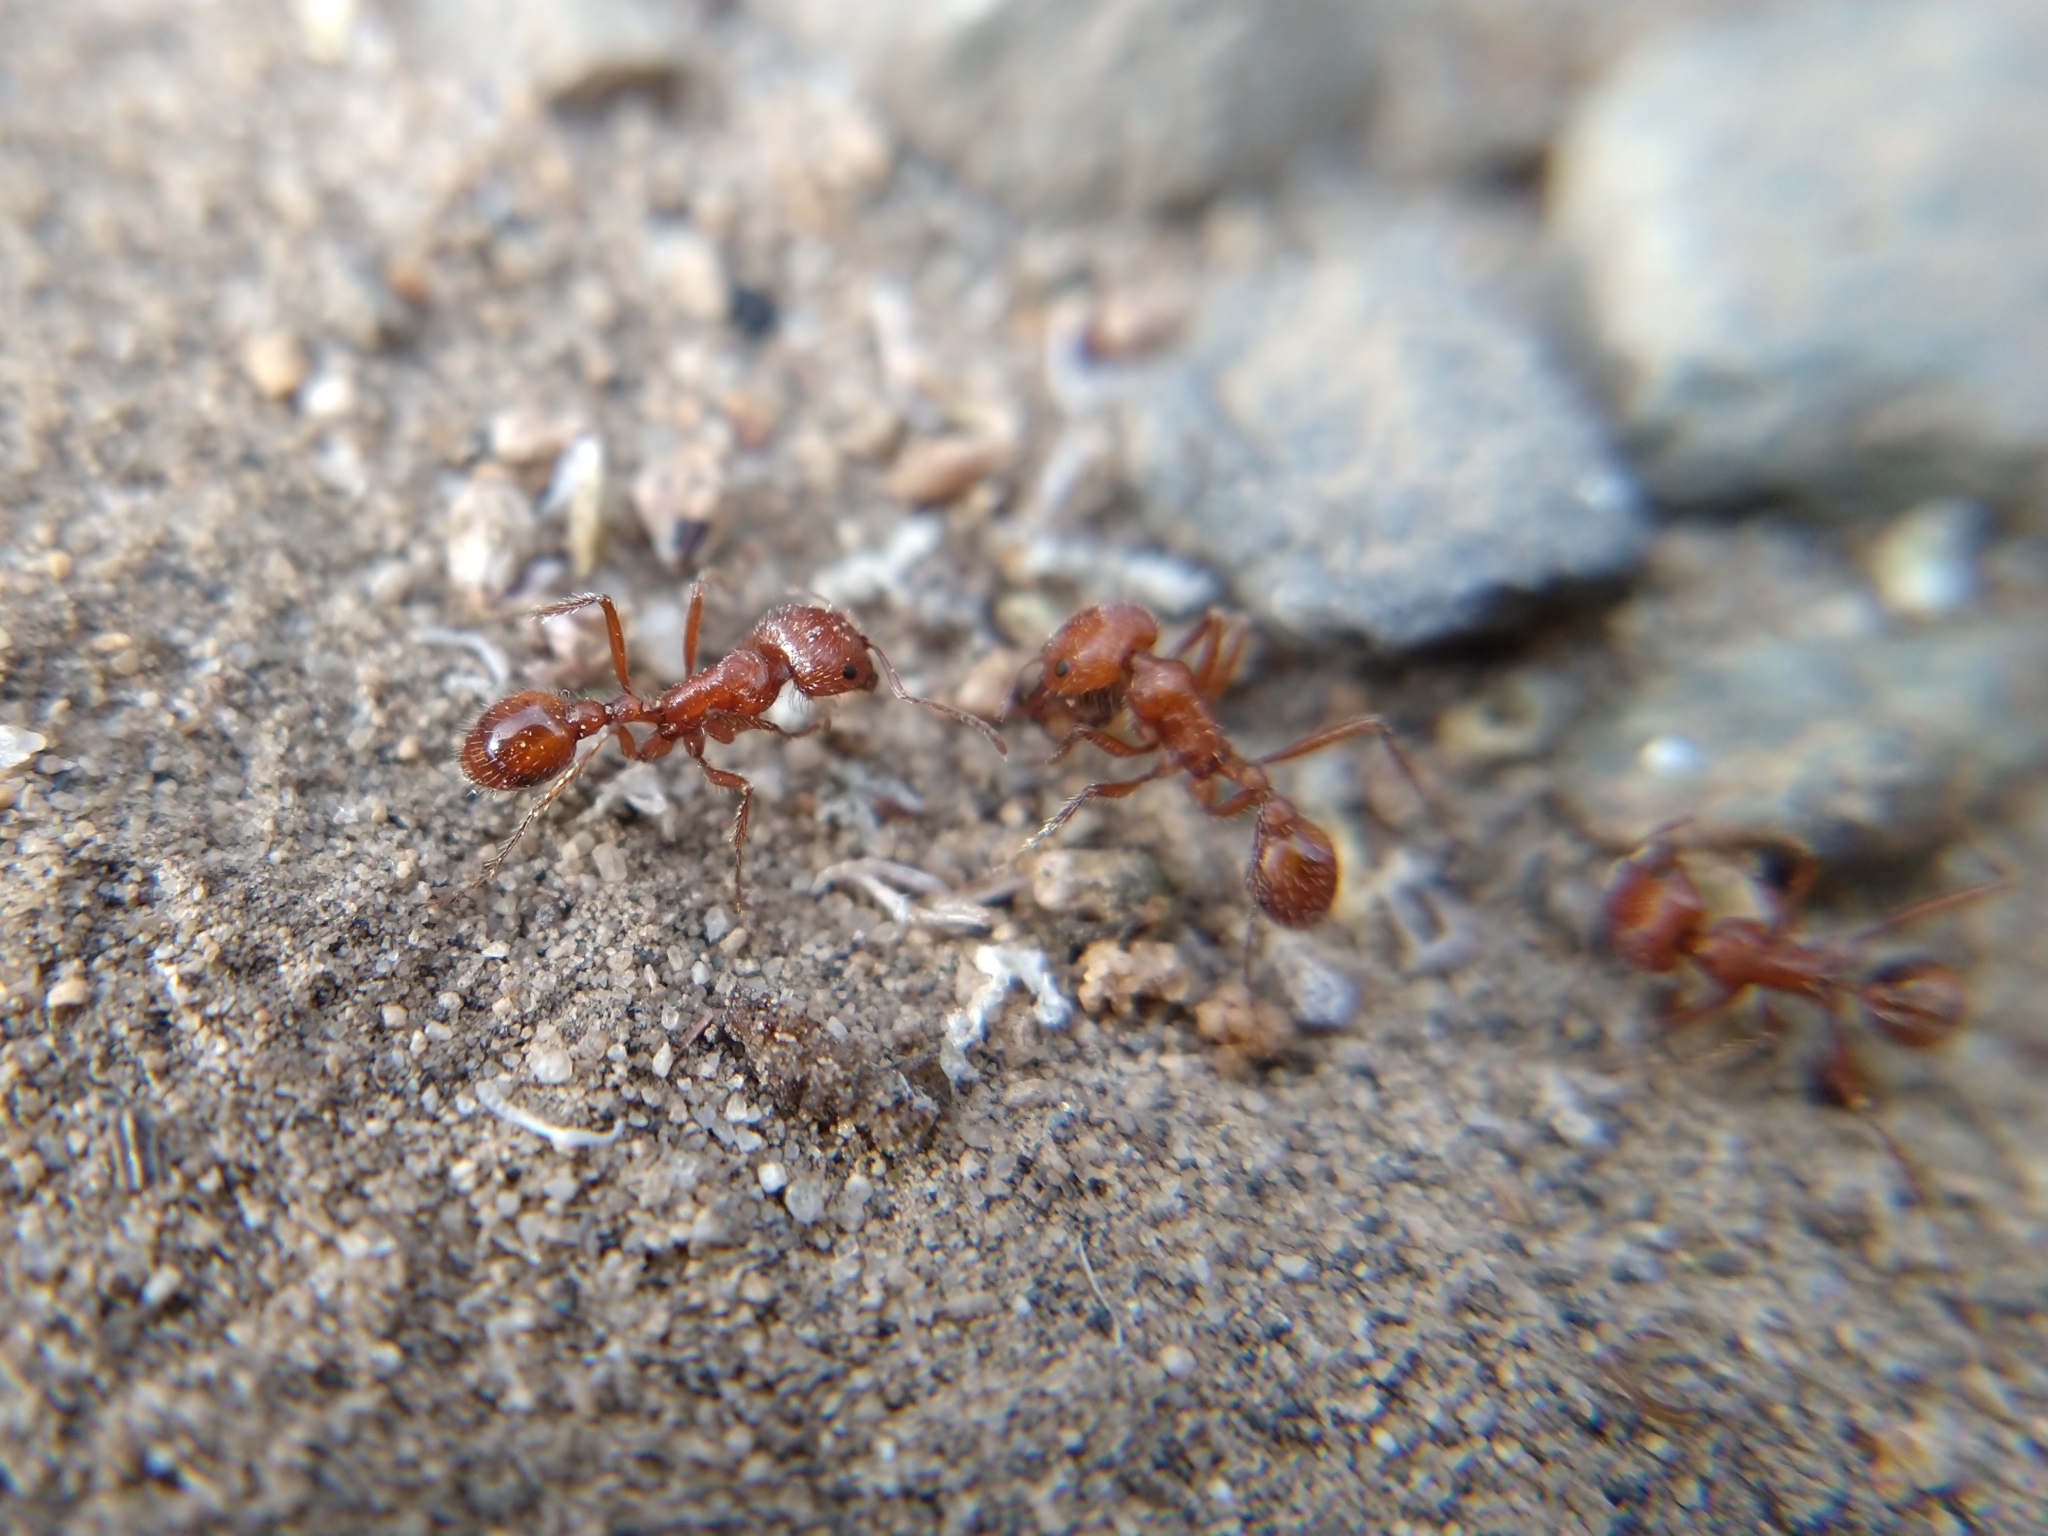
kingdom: Animalia
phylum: Arthropoda
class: Insecta
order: Hymenoptera
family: Formicidae
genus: Pogonomyrmex
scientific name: Pogonomyrmex
